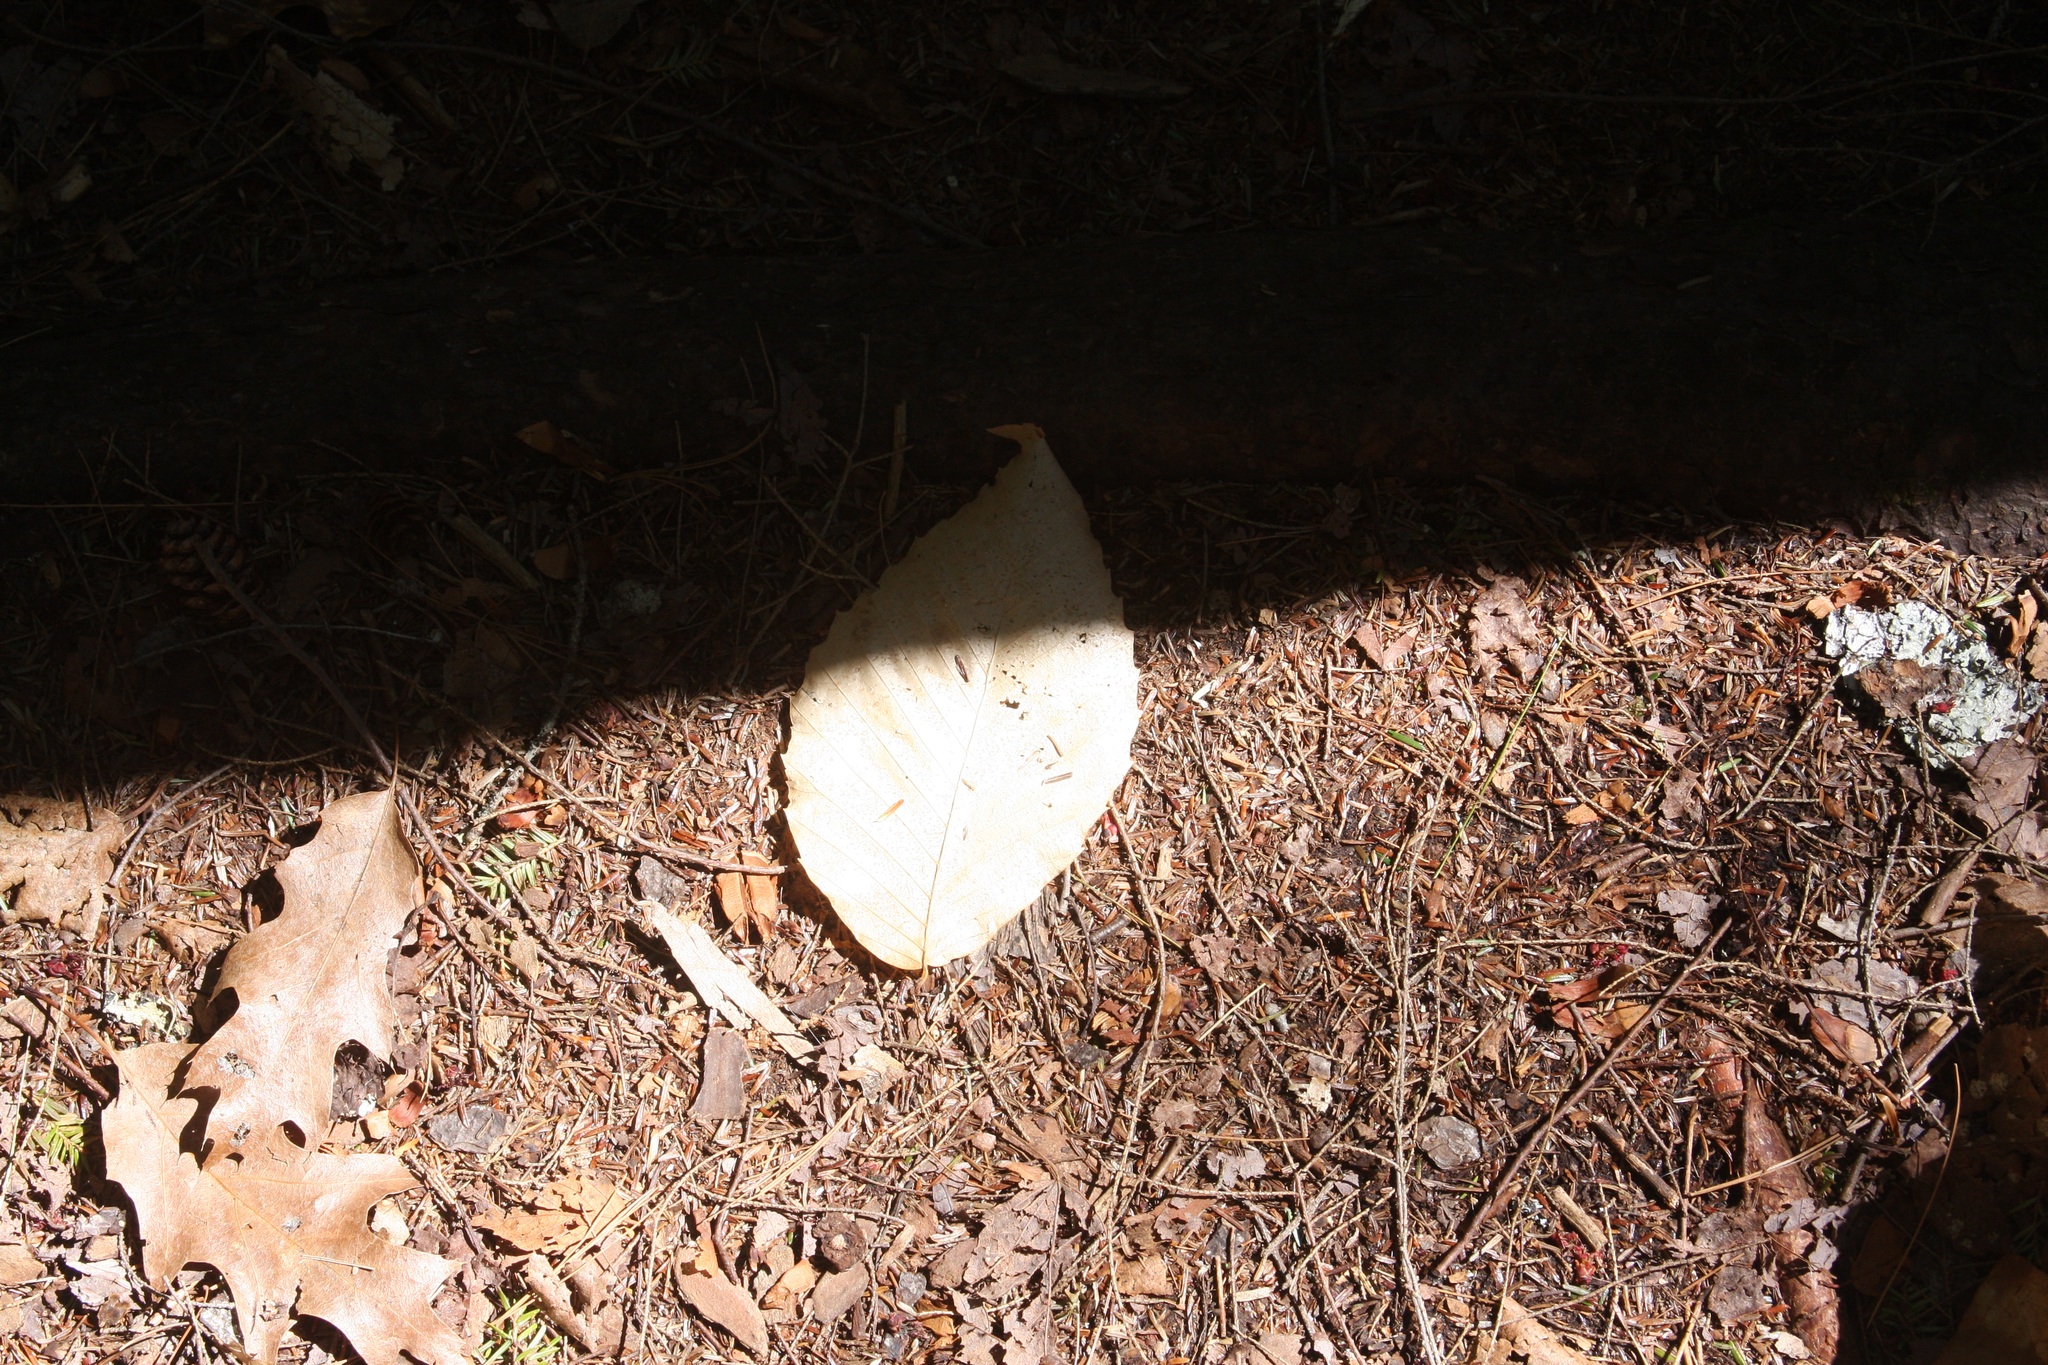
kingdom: Plantae
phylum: Tracheophyta
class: Magnoliopsida
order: Fagales
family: Fagaceae
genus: Fagus
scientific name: Fagus grandifolia
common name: American beech
